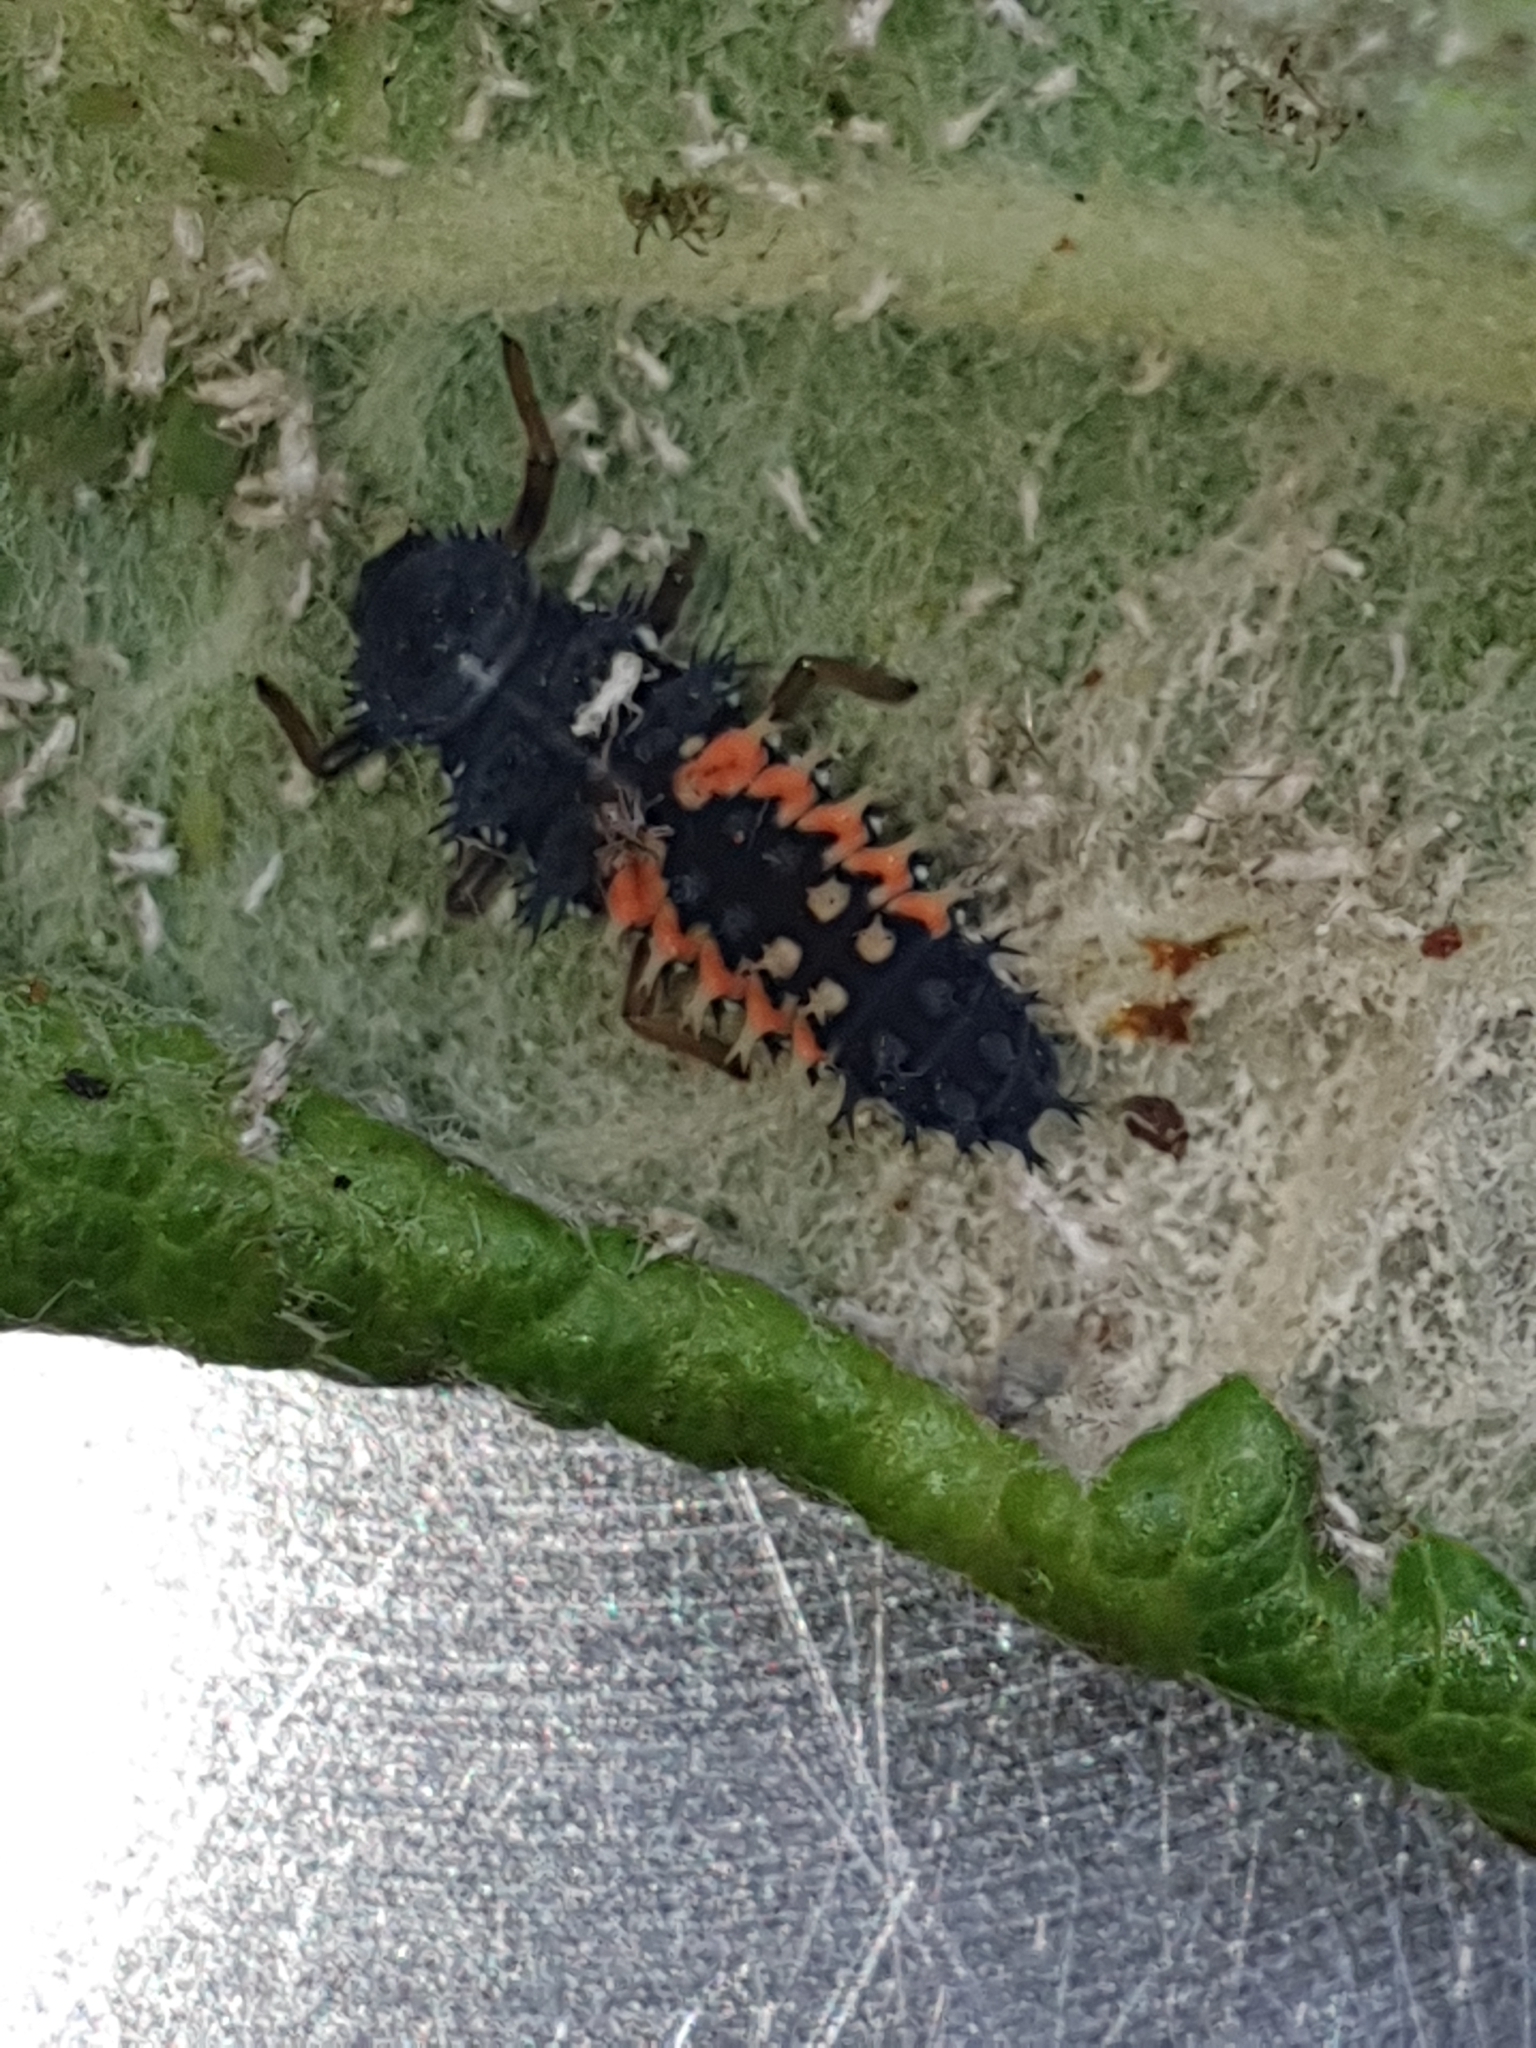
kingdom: Animalia
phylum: Arthropoda
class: Insecta
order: Coleoptera
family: Coccinellidae
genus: Harmonia
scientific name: Harmonia axyridis
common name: Harlequin ladybird
